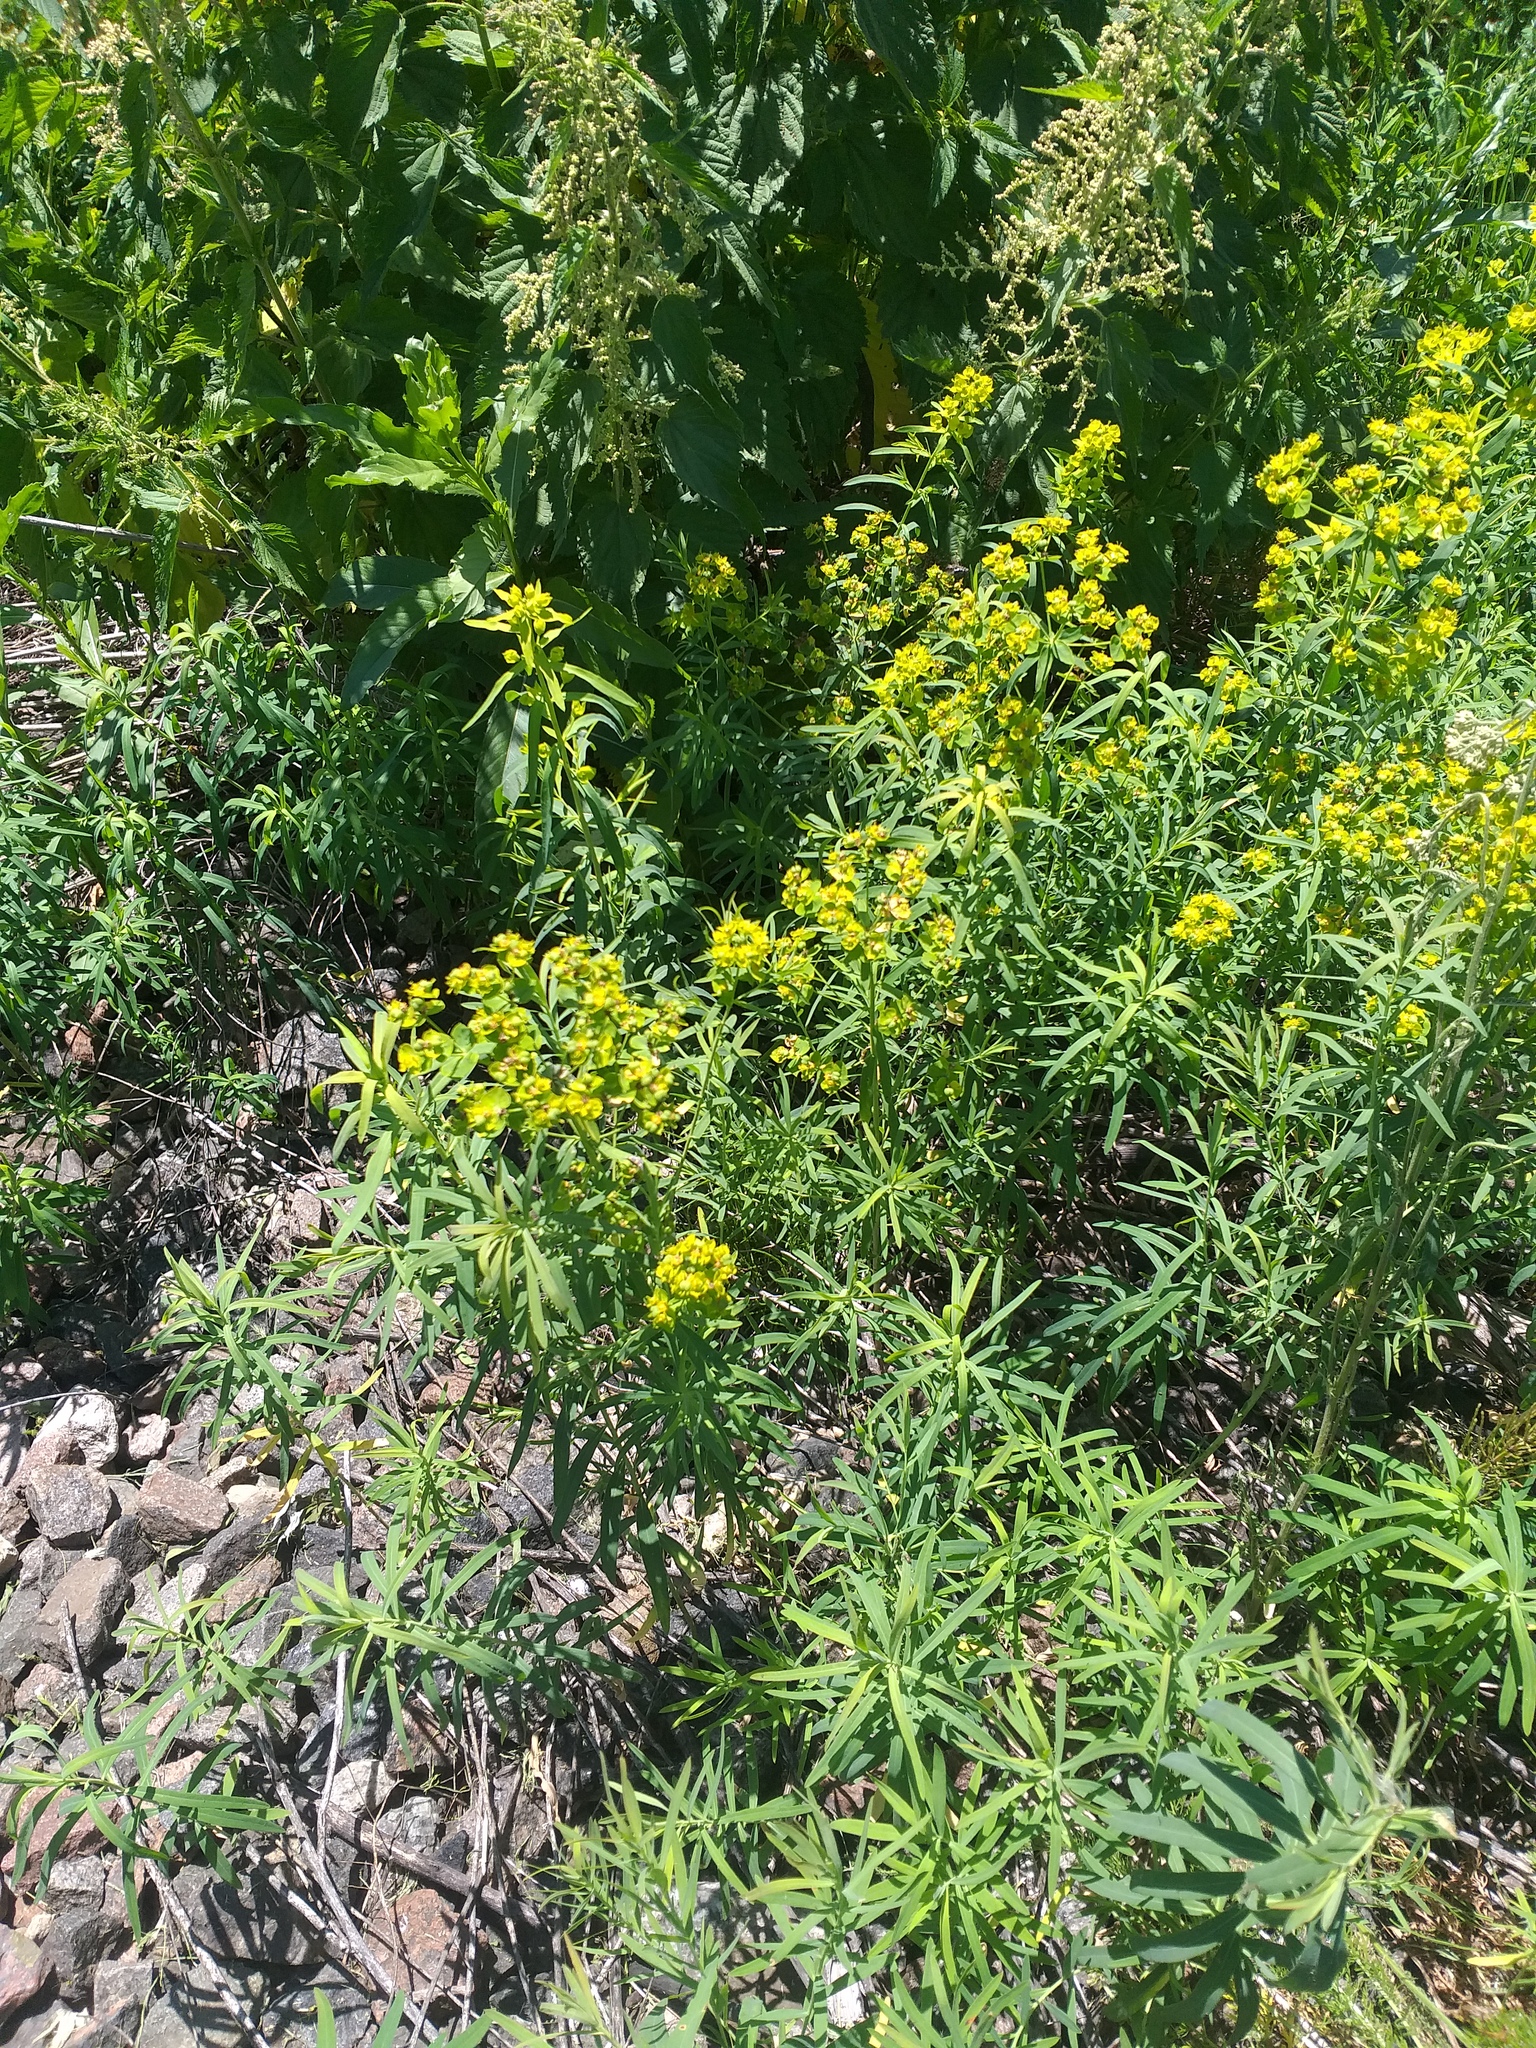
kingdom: Plantae
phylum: Tracheophyta
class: Magnoliopsida
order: Malpighiales
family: Euphorbiaceae
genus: Euphorbia
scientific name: Euphorbia virgata
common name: Leafy spurge
